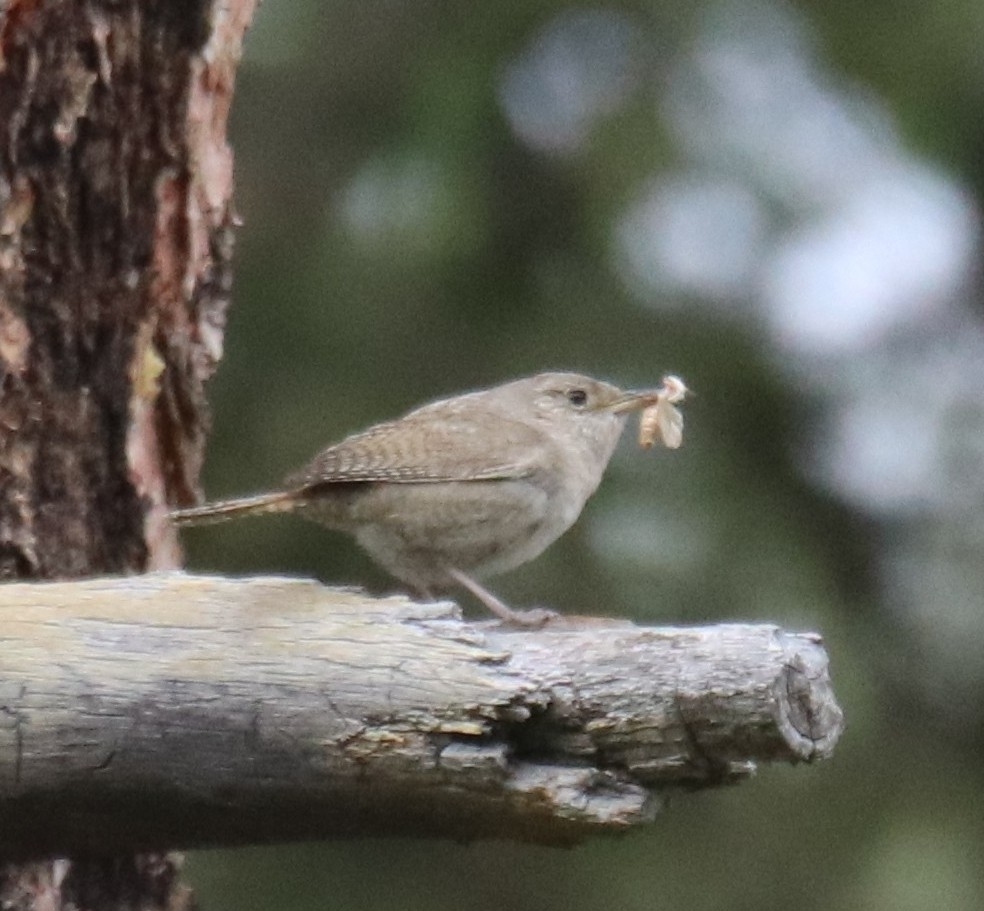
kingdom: Animalia
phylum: Chordata
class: Aves
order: Passeriformes
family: Troglodytidae
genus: Troglodytes
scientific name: Troglodytes aedon
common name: House wren
